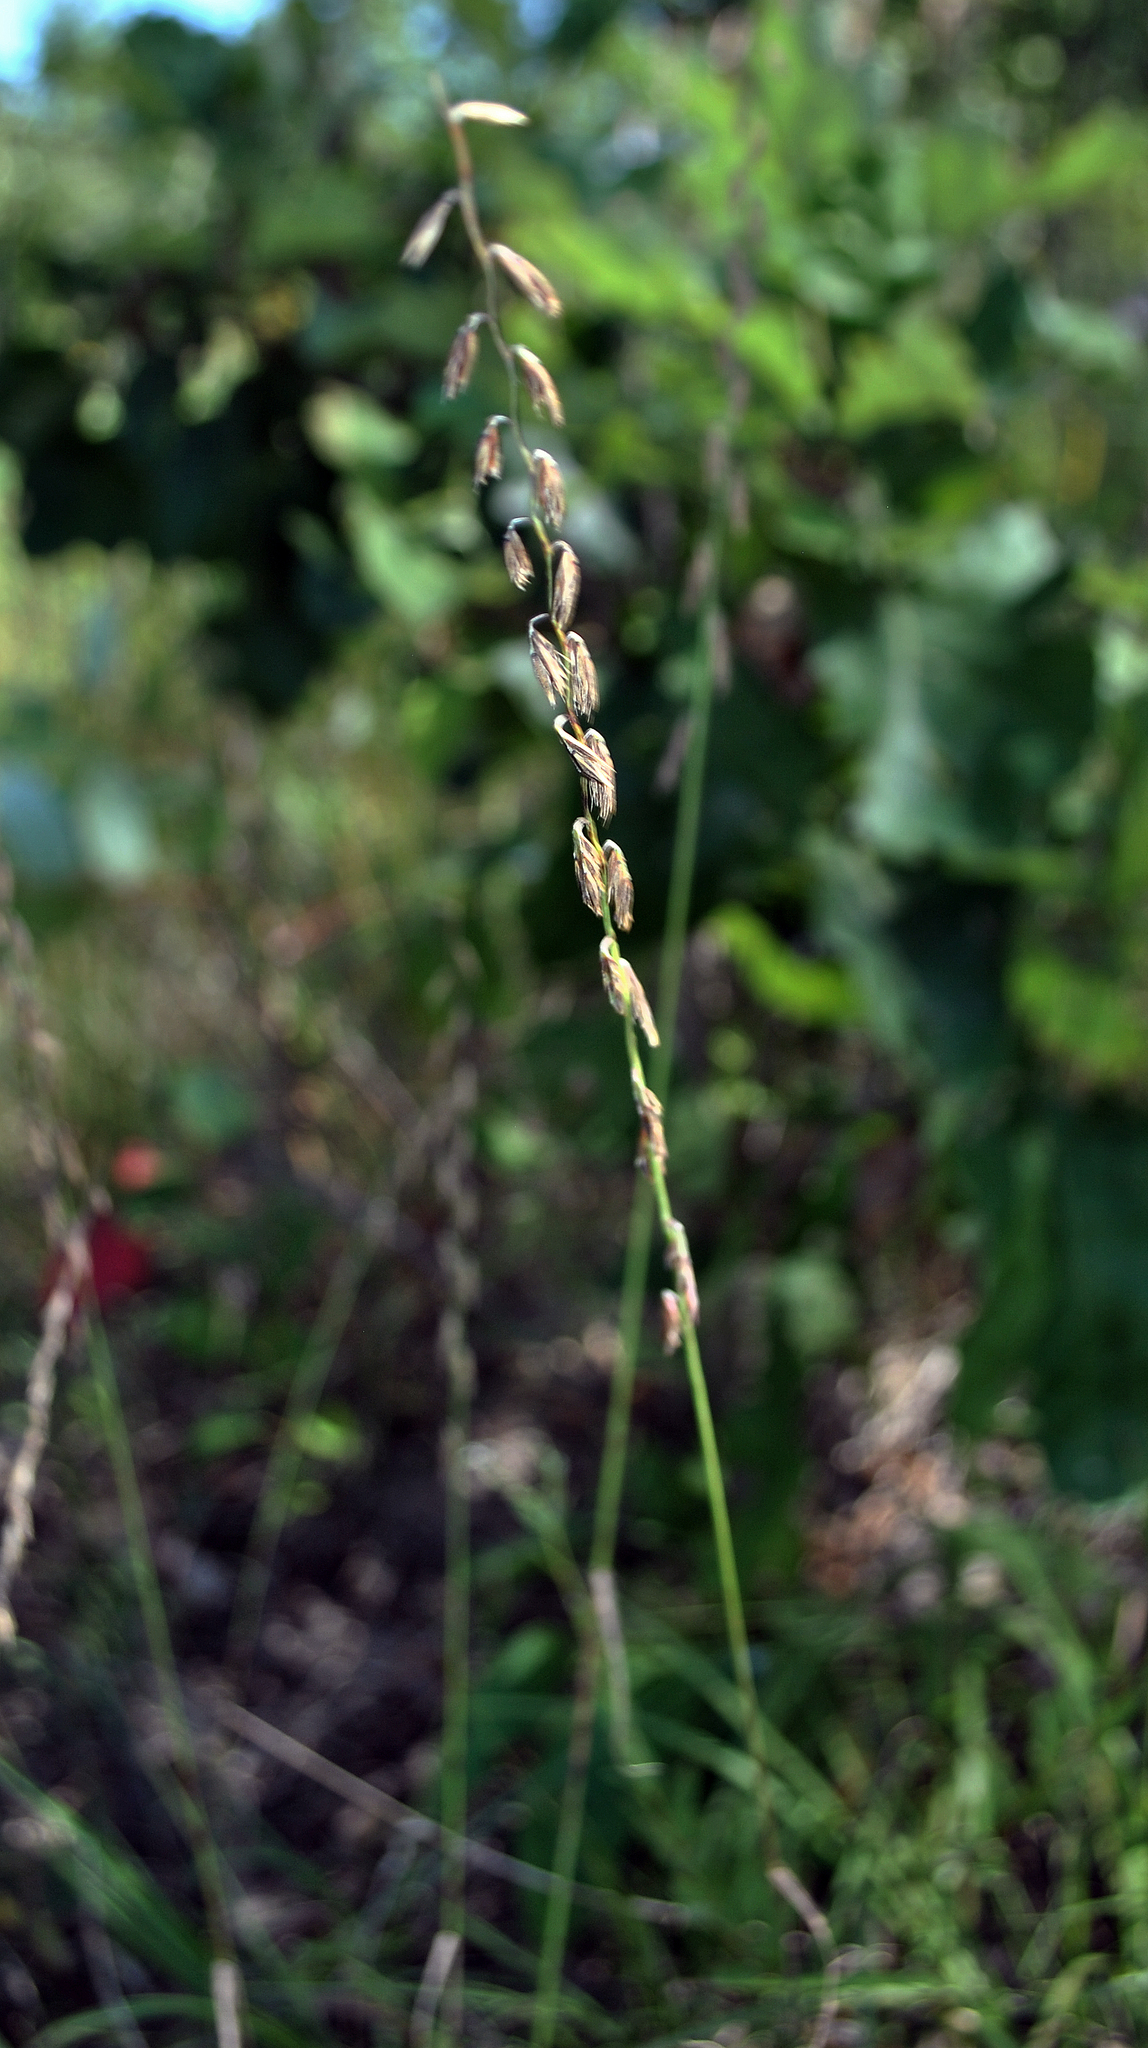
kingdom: Plantae
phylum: Tracheophyta
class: Liliopsida
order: Poales
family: Poaceae
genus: Bouteloua
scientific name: Bouteloua curtipendula
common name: Side-oats grama
